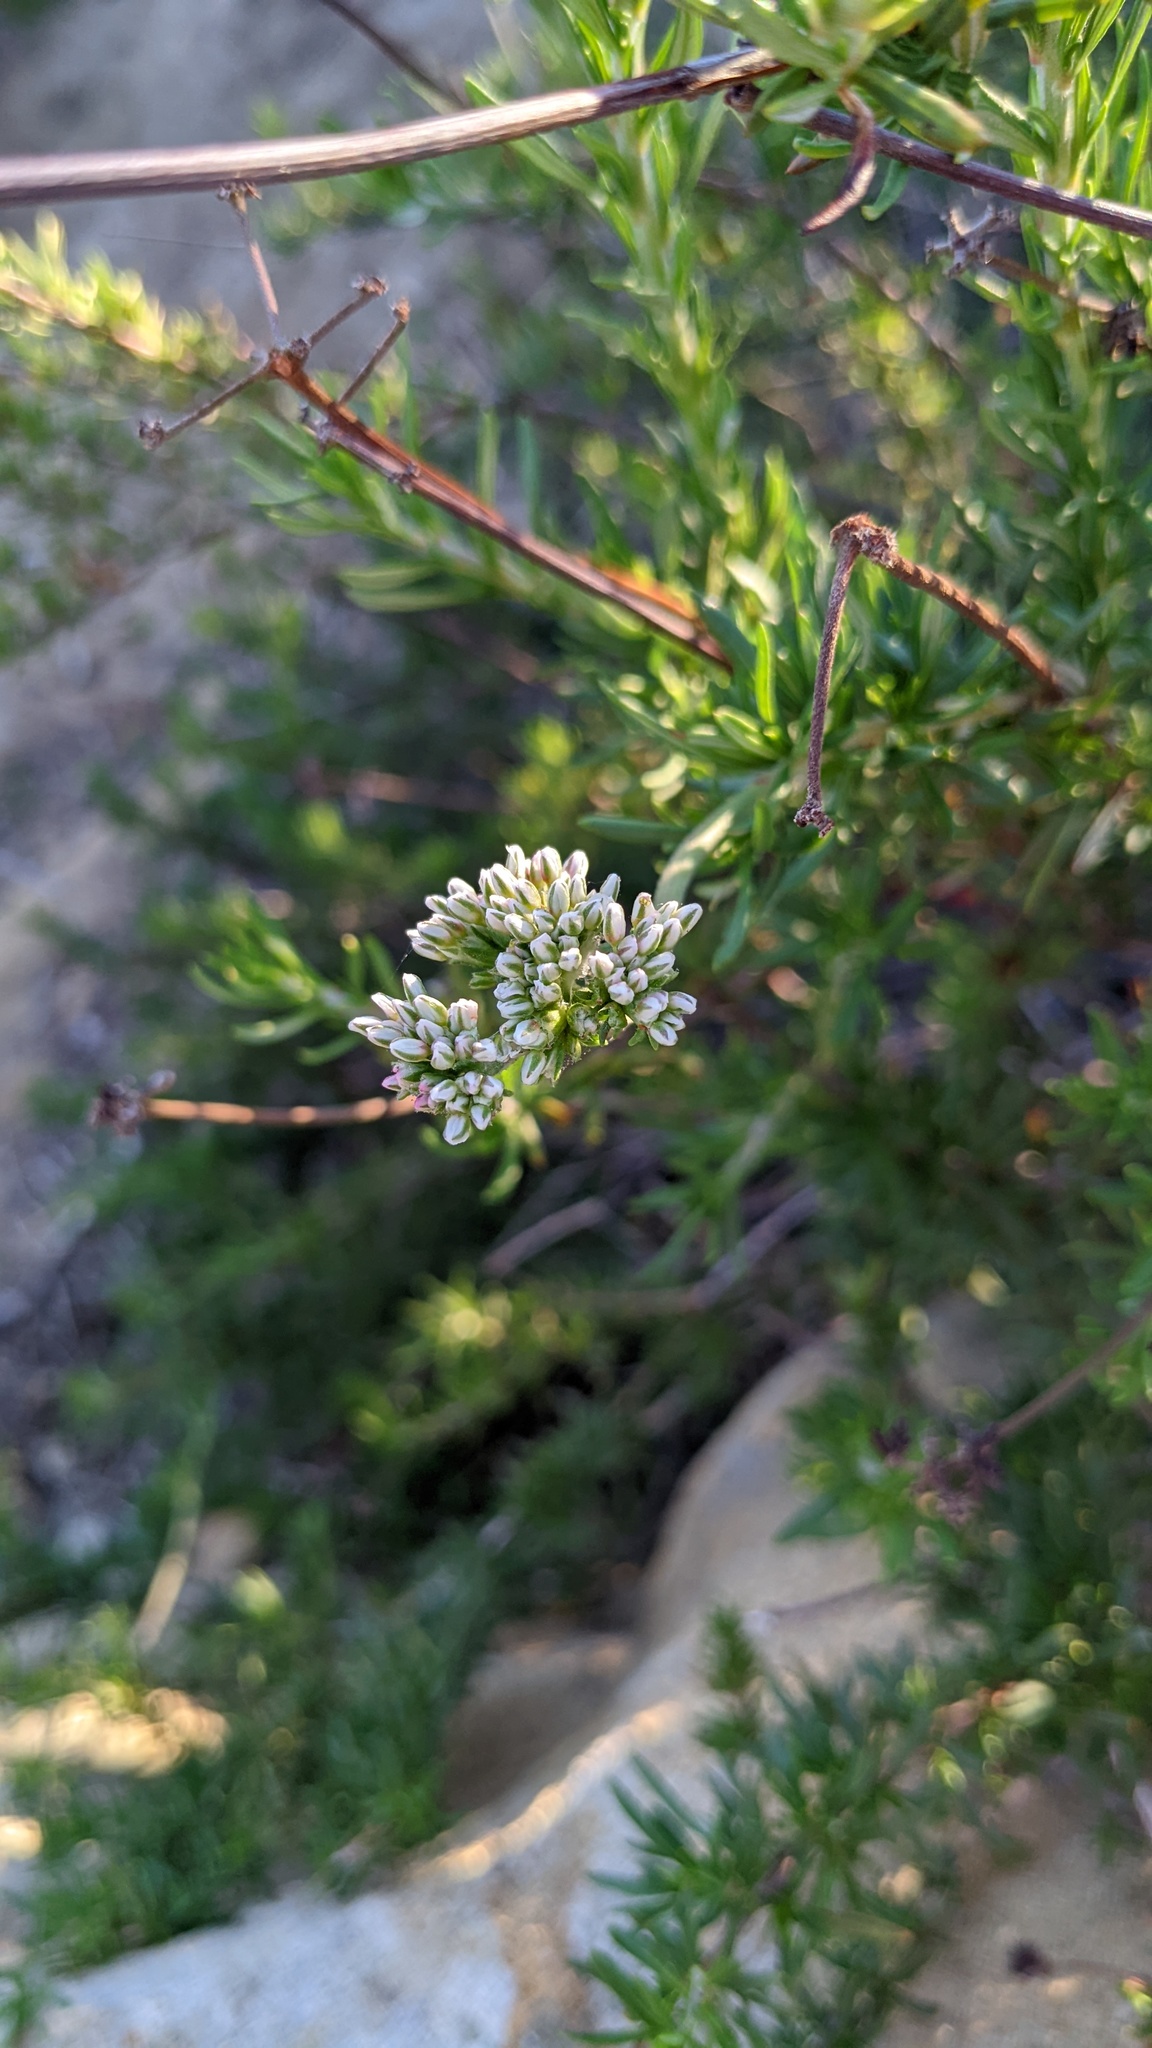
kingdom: Plantae
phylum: Tracheophyta
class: Magnoliopsida
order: Caryophyllales
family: Polygonaceae
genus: Eriogonum
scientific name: Eriogonum fasciculatum
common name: California wild buckwheat
